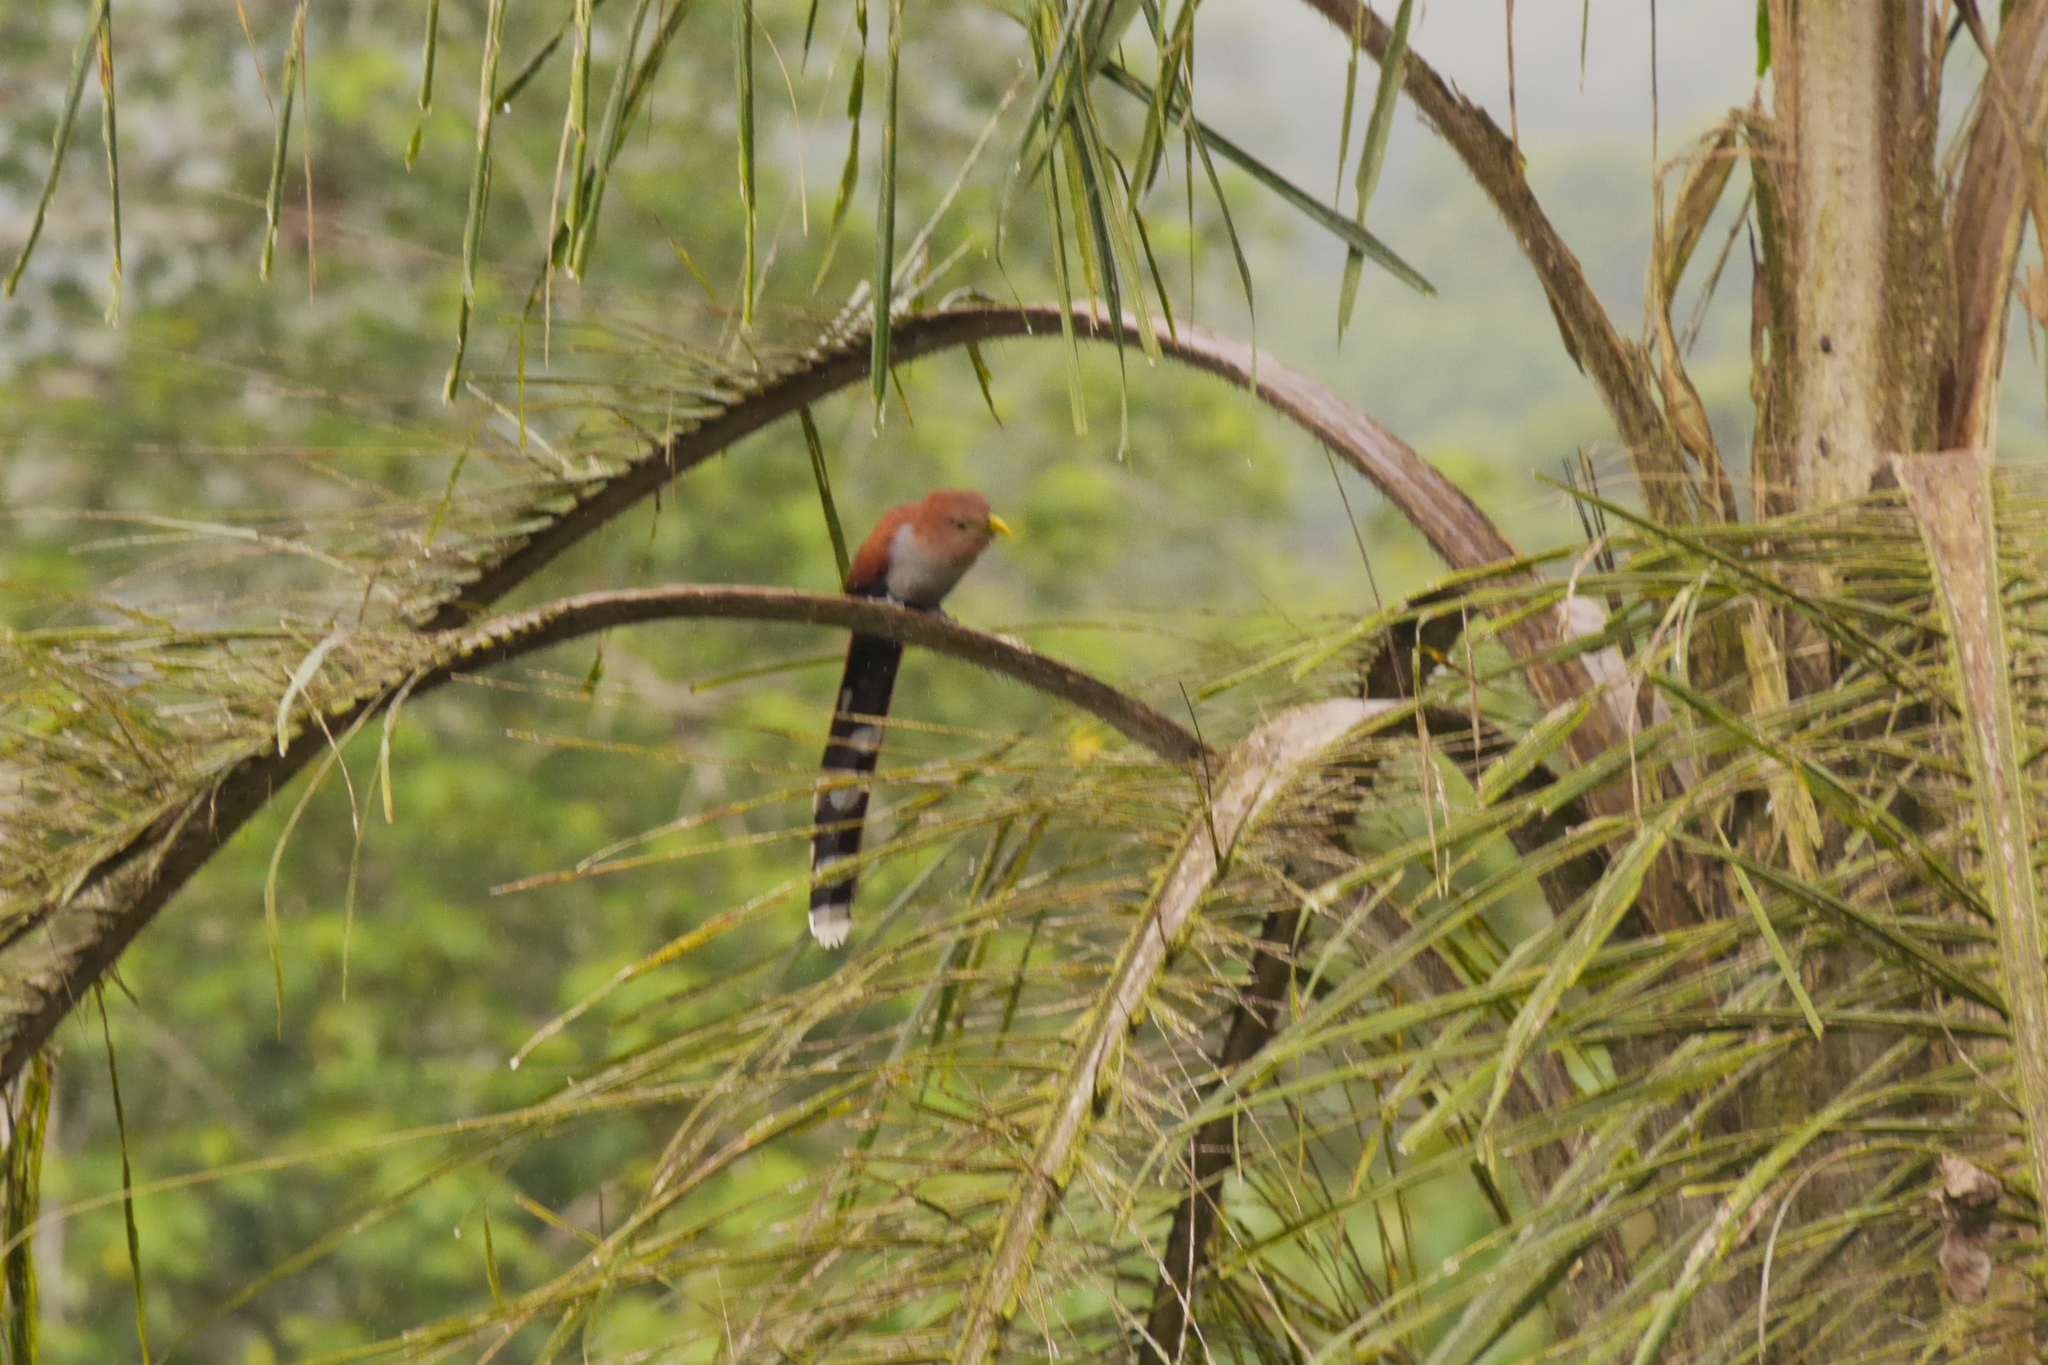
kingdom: Animalia
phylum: Chordata
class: Aves
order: Cuculiformes
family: Cuculidae
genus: Piaya
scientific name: Piaya cayana
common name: Squirrel cuckoo
